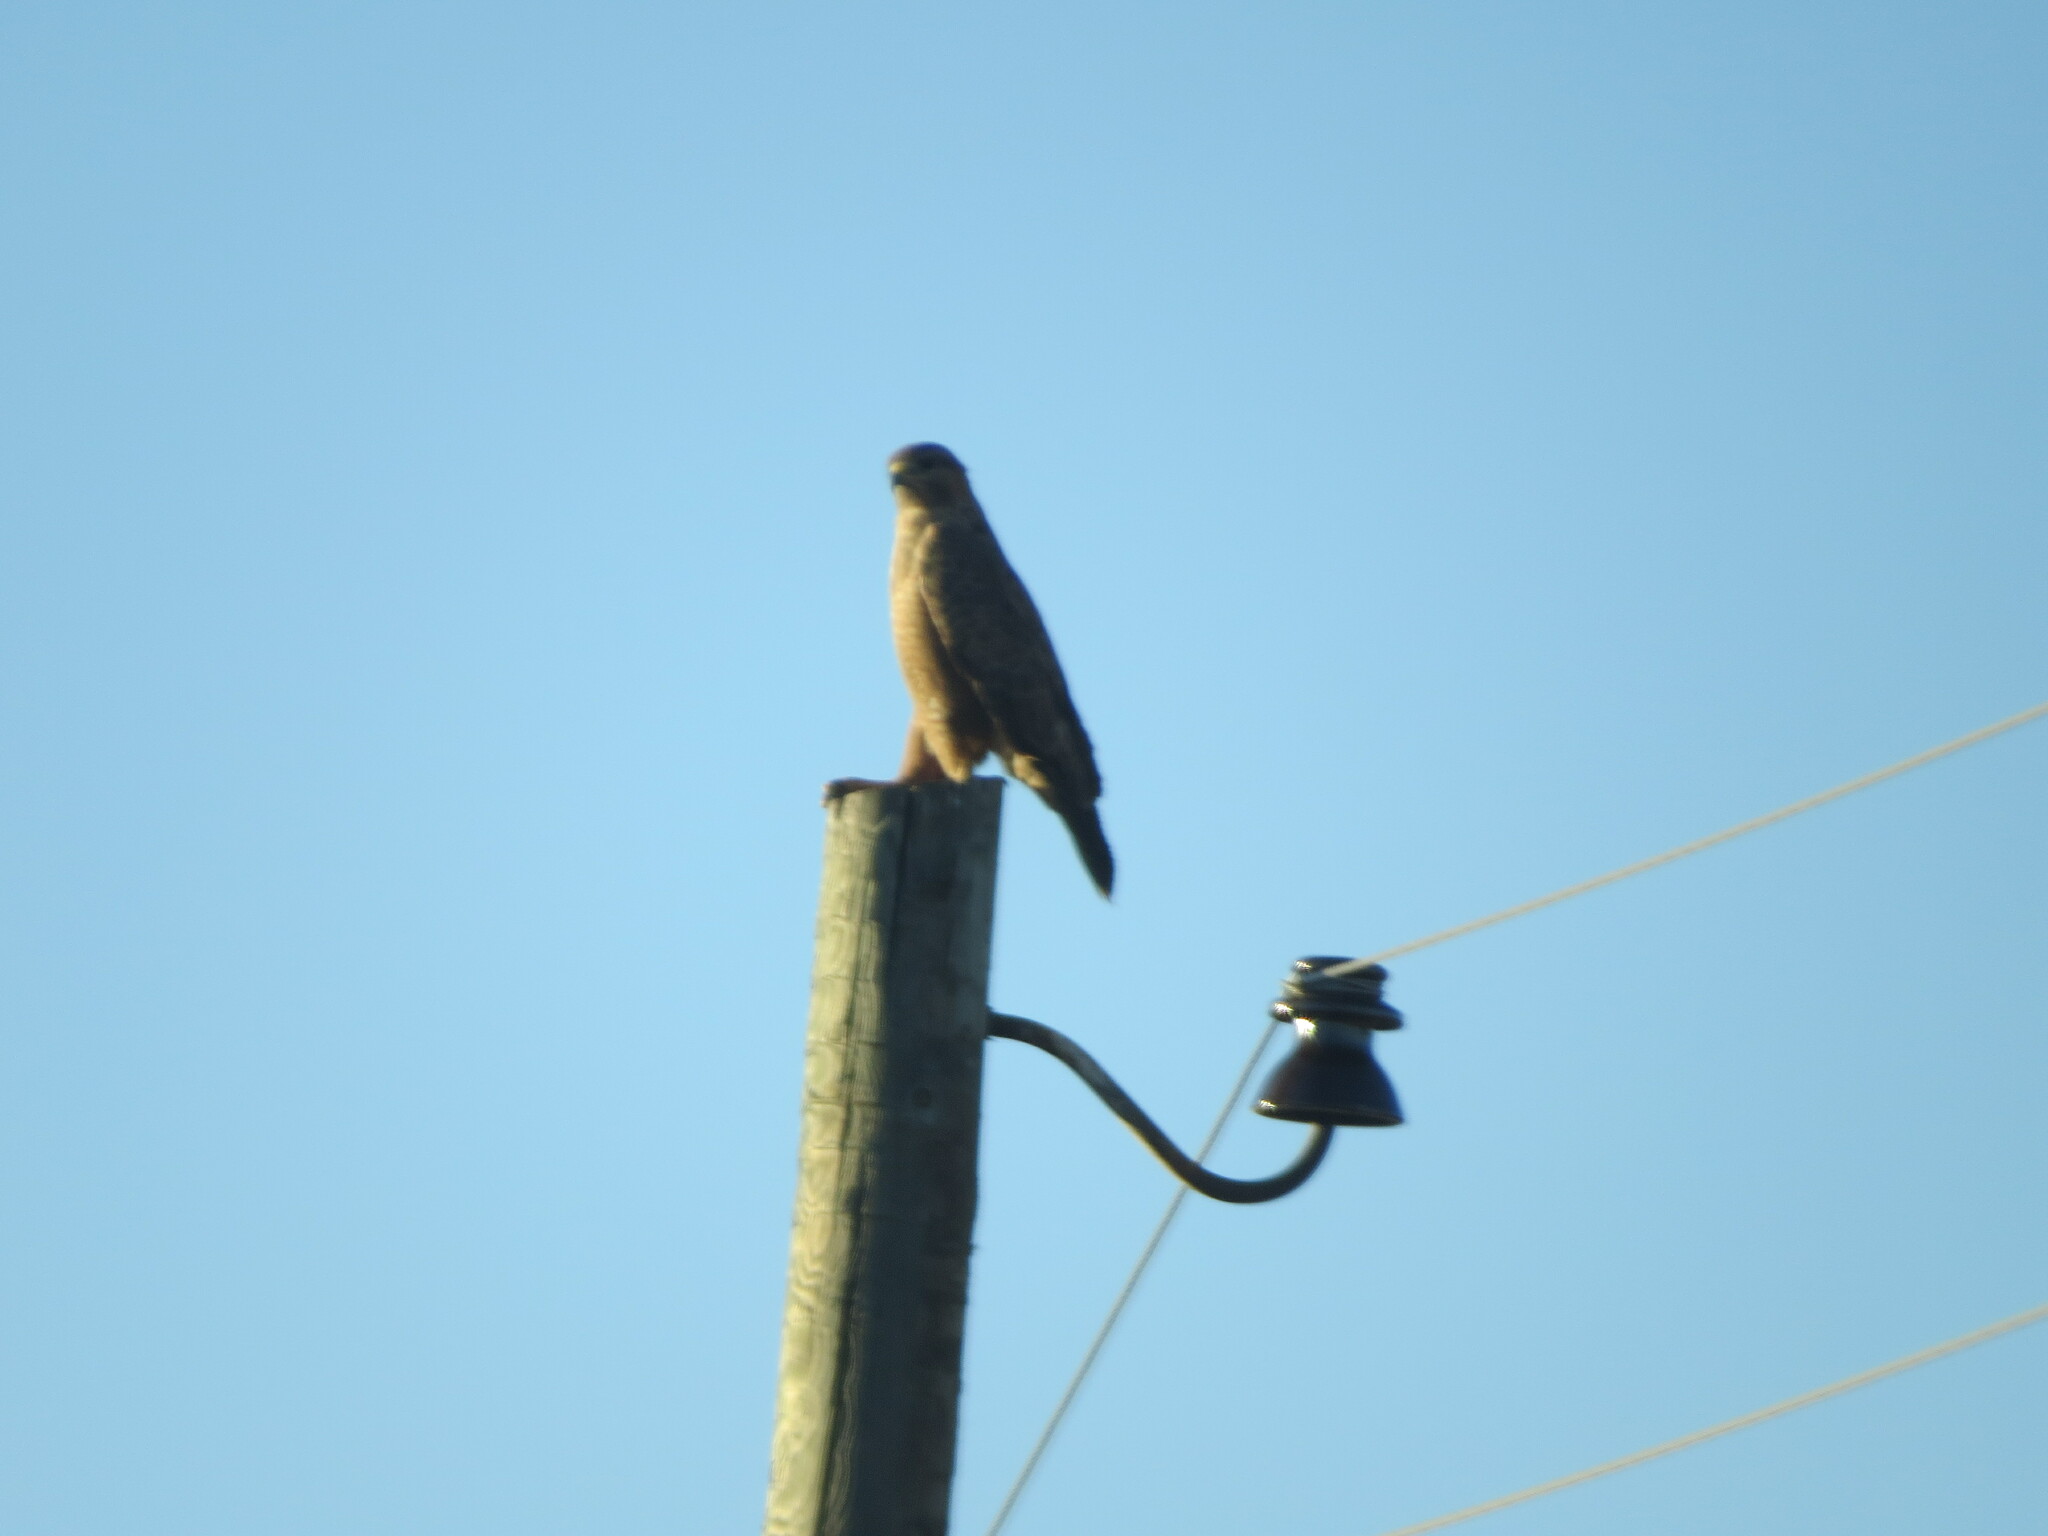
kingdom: Animalia
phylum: Chordata
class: Aves
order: Accipitriformes
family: Accipitridae
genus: Buteo
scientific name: Buteo buteo
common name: Common buzzard
